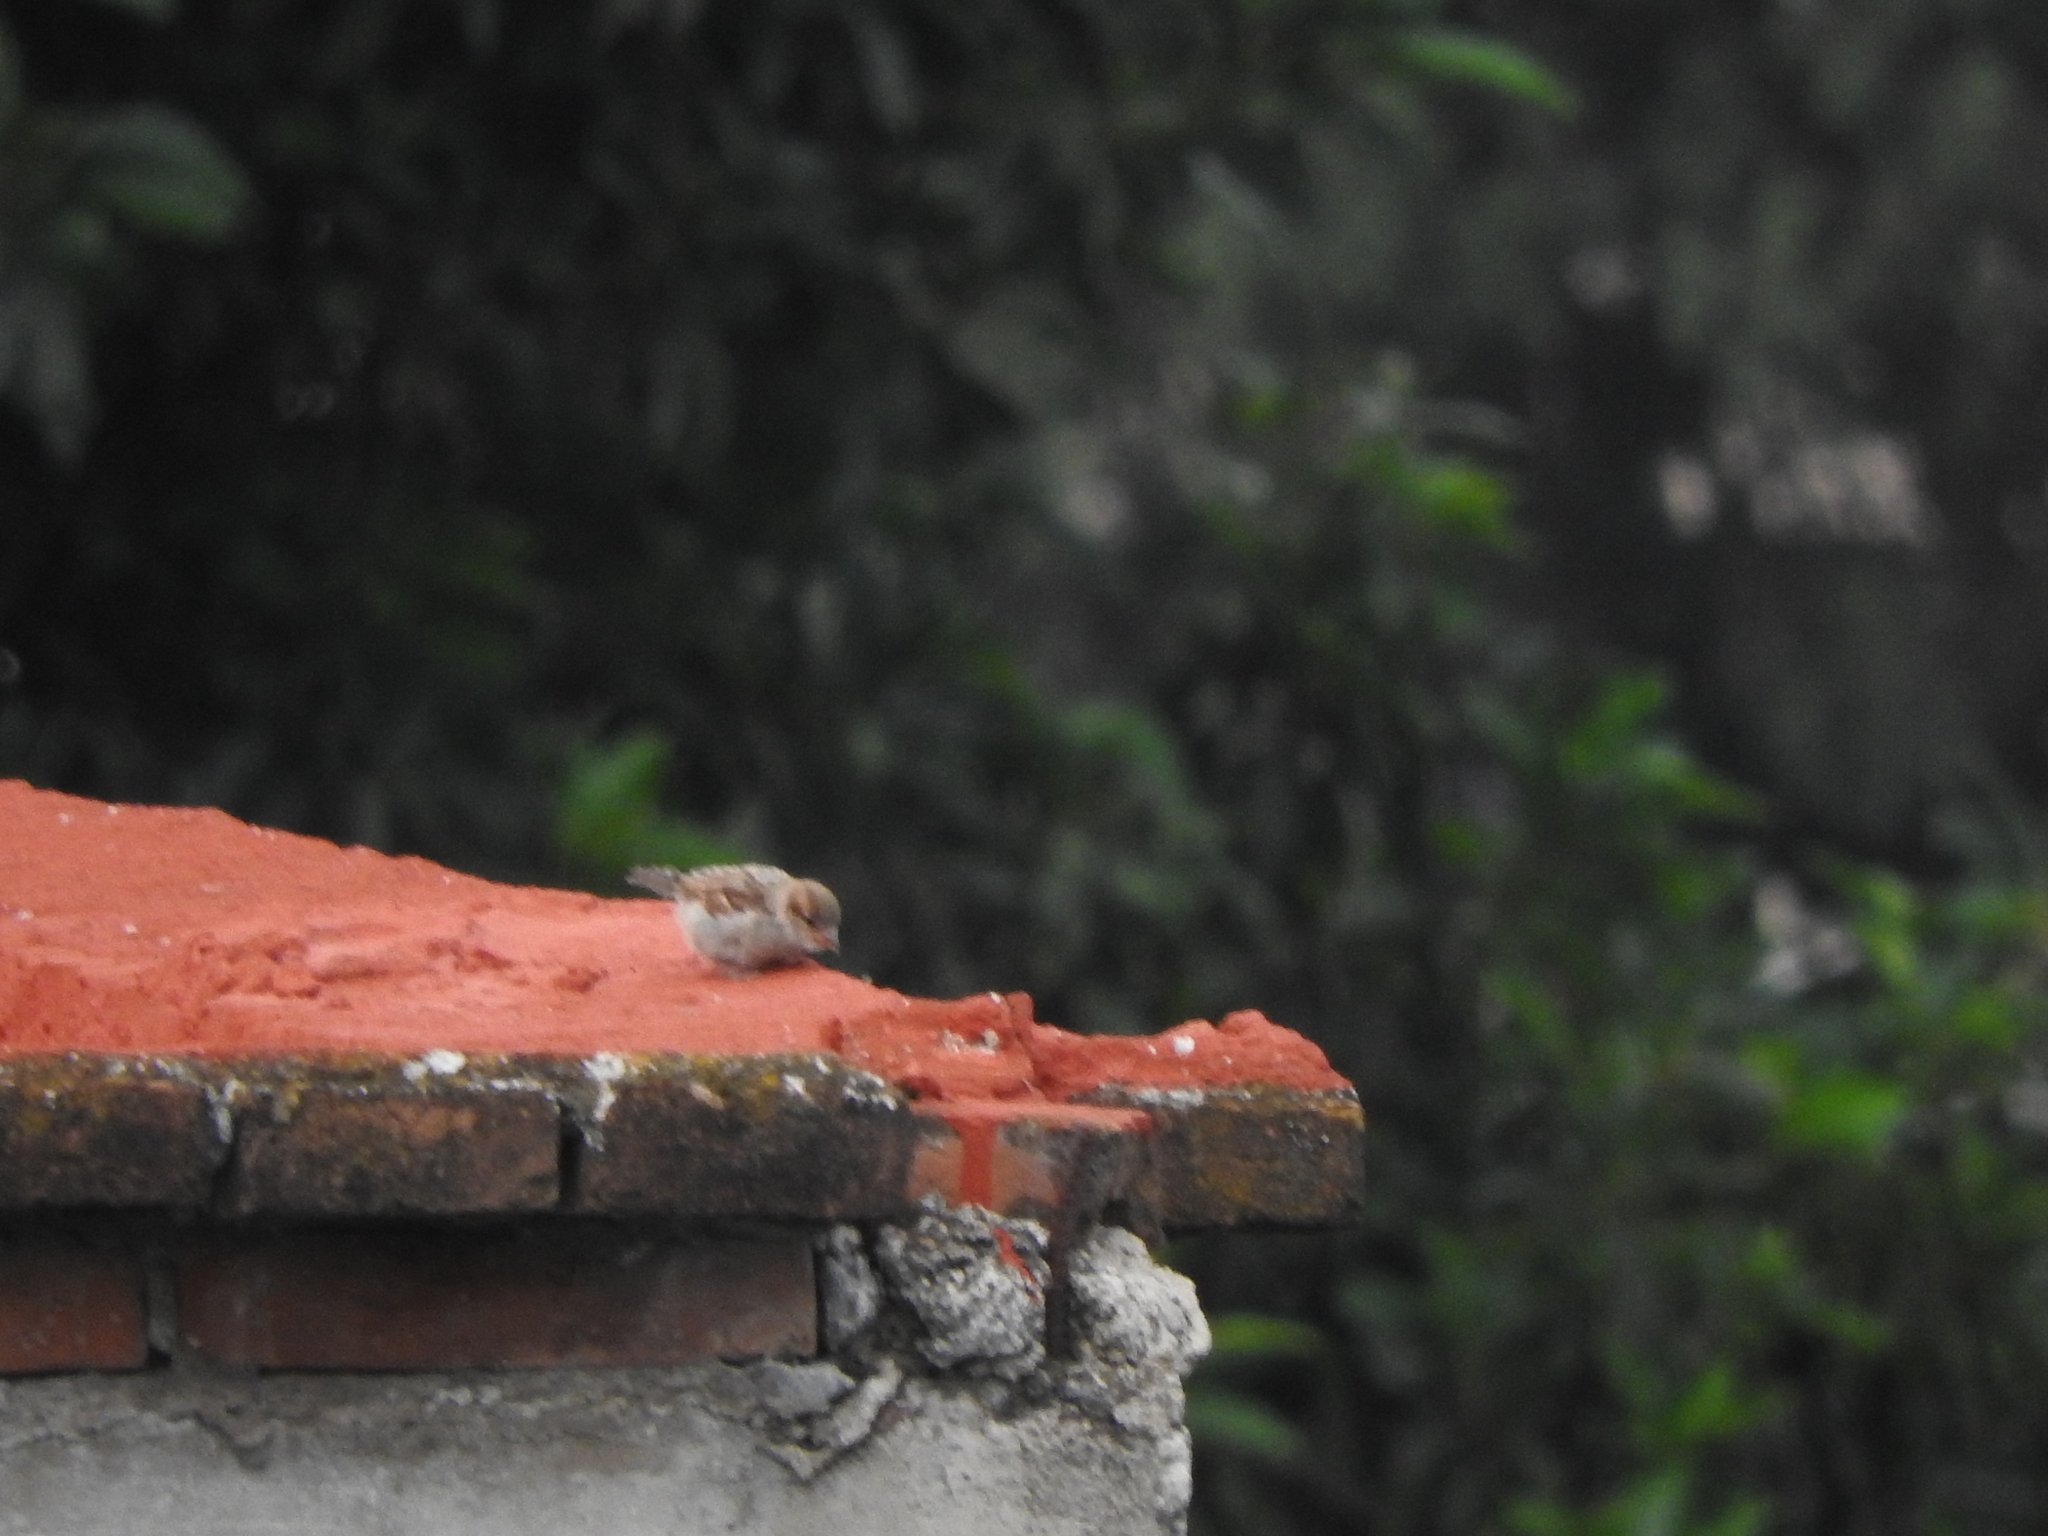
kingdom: Animalia
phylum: Chordata
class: Aves
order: Passeriformes
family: Passeridae
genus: Passer
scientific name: Passer domesticus
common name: House sparrow
